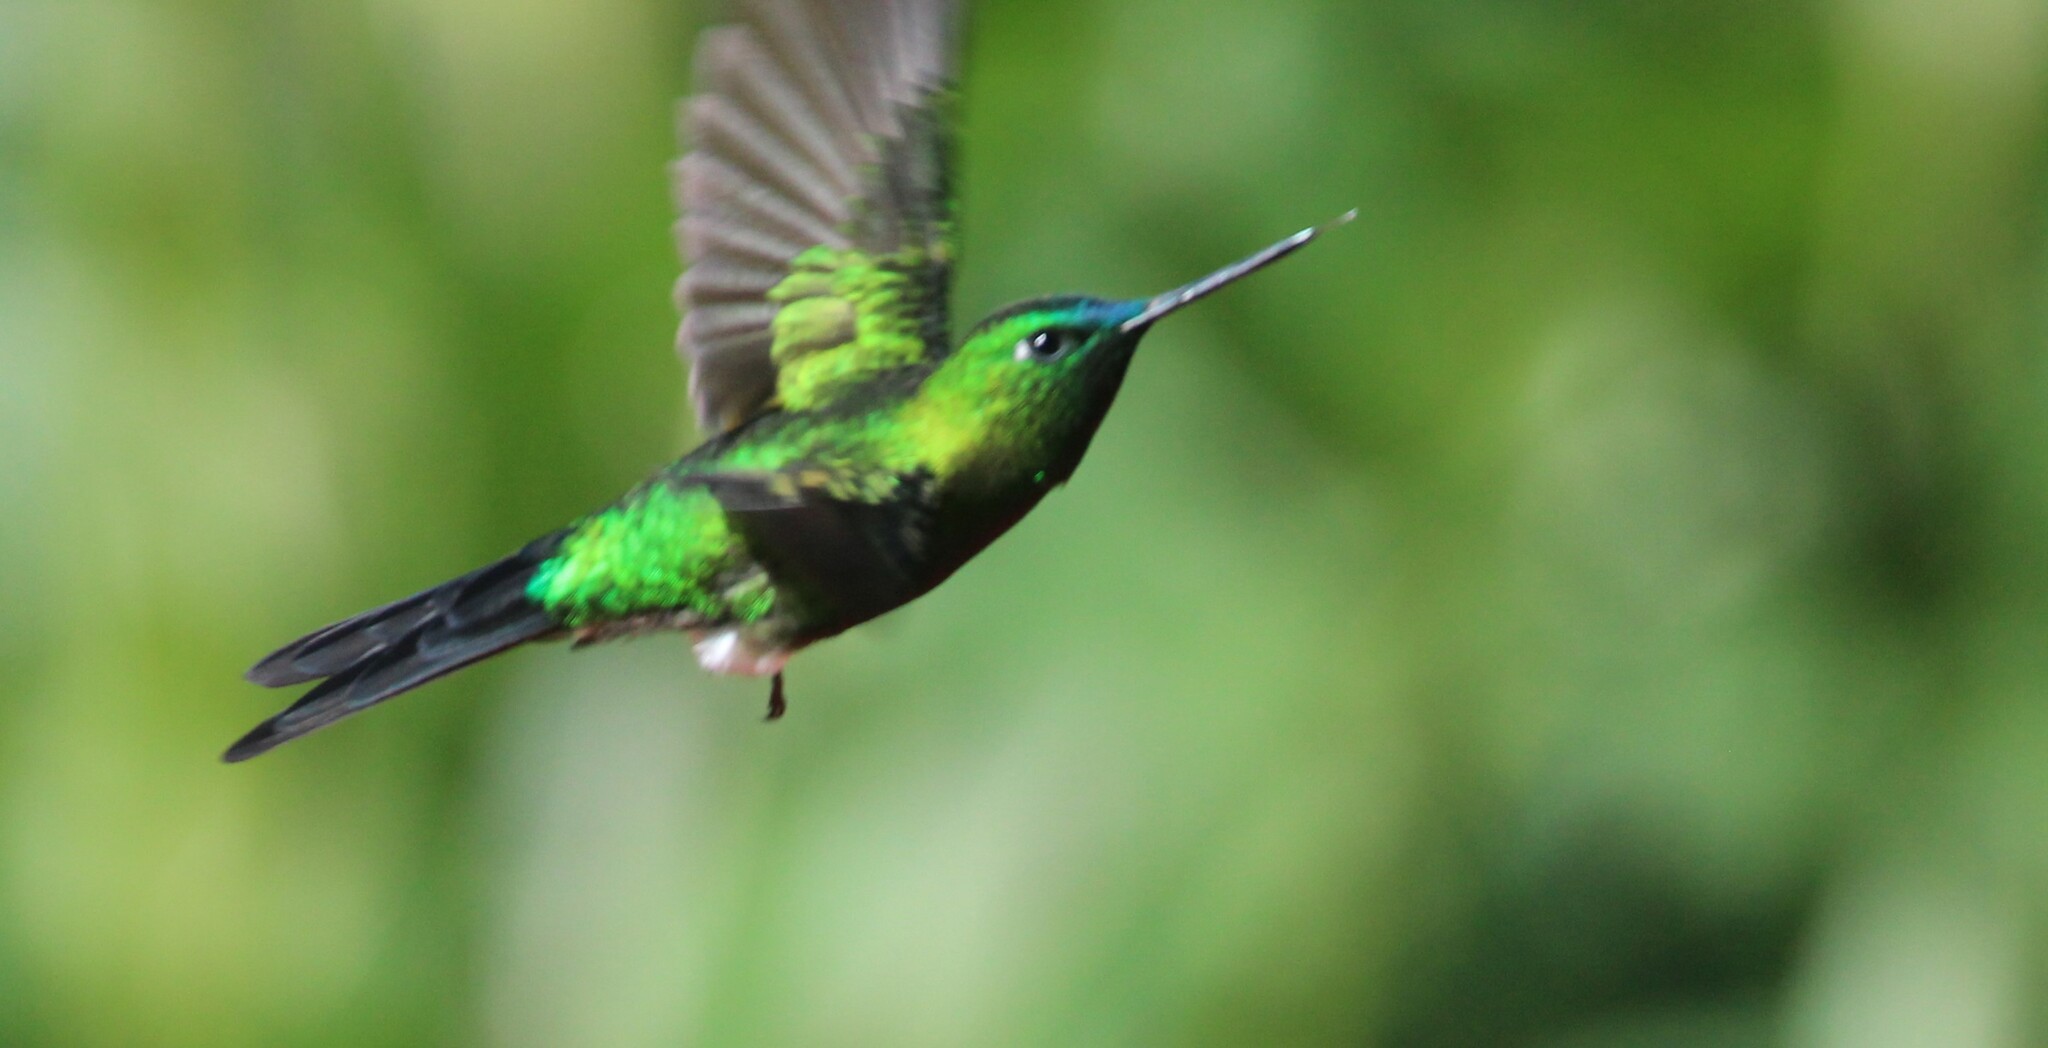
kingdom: Animalia
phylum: Chordata
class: Aves
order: Apodiformes
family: Trochilidae
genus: Eriocnemis
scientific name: Eriocnemis luciani
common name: Sapphire-vented puffleg
